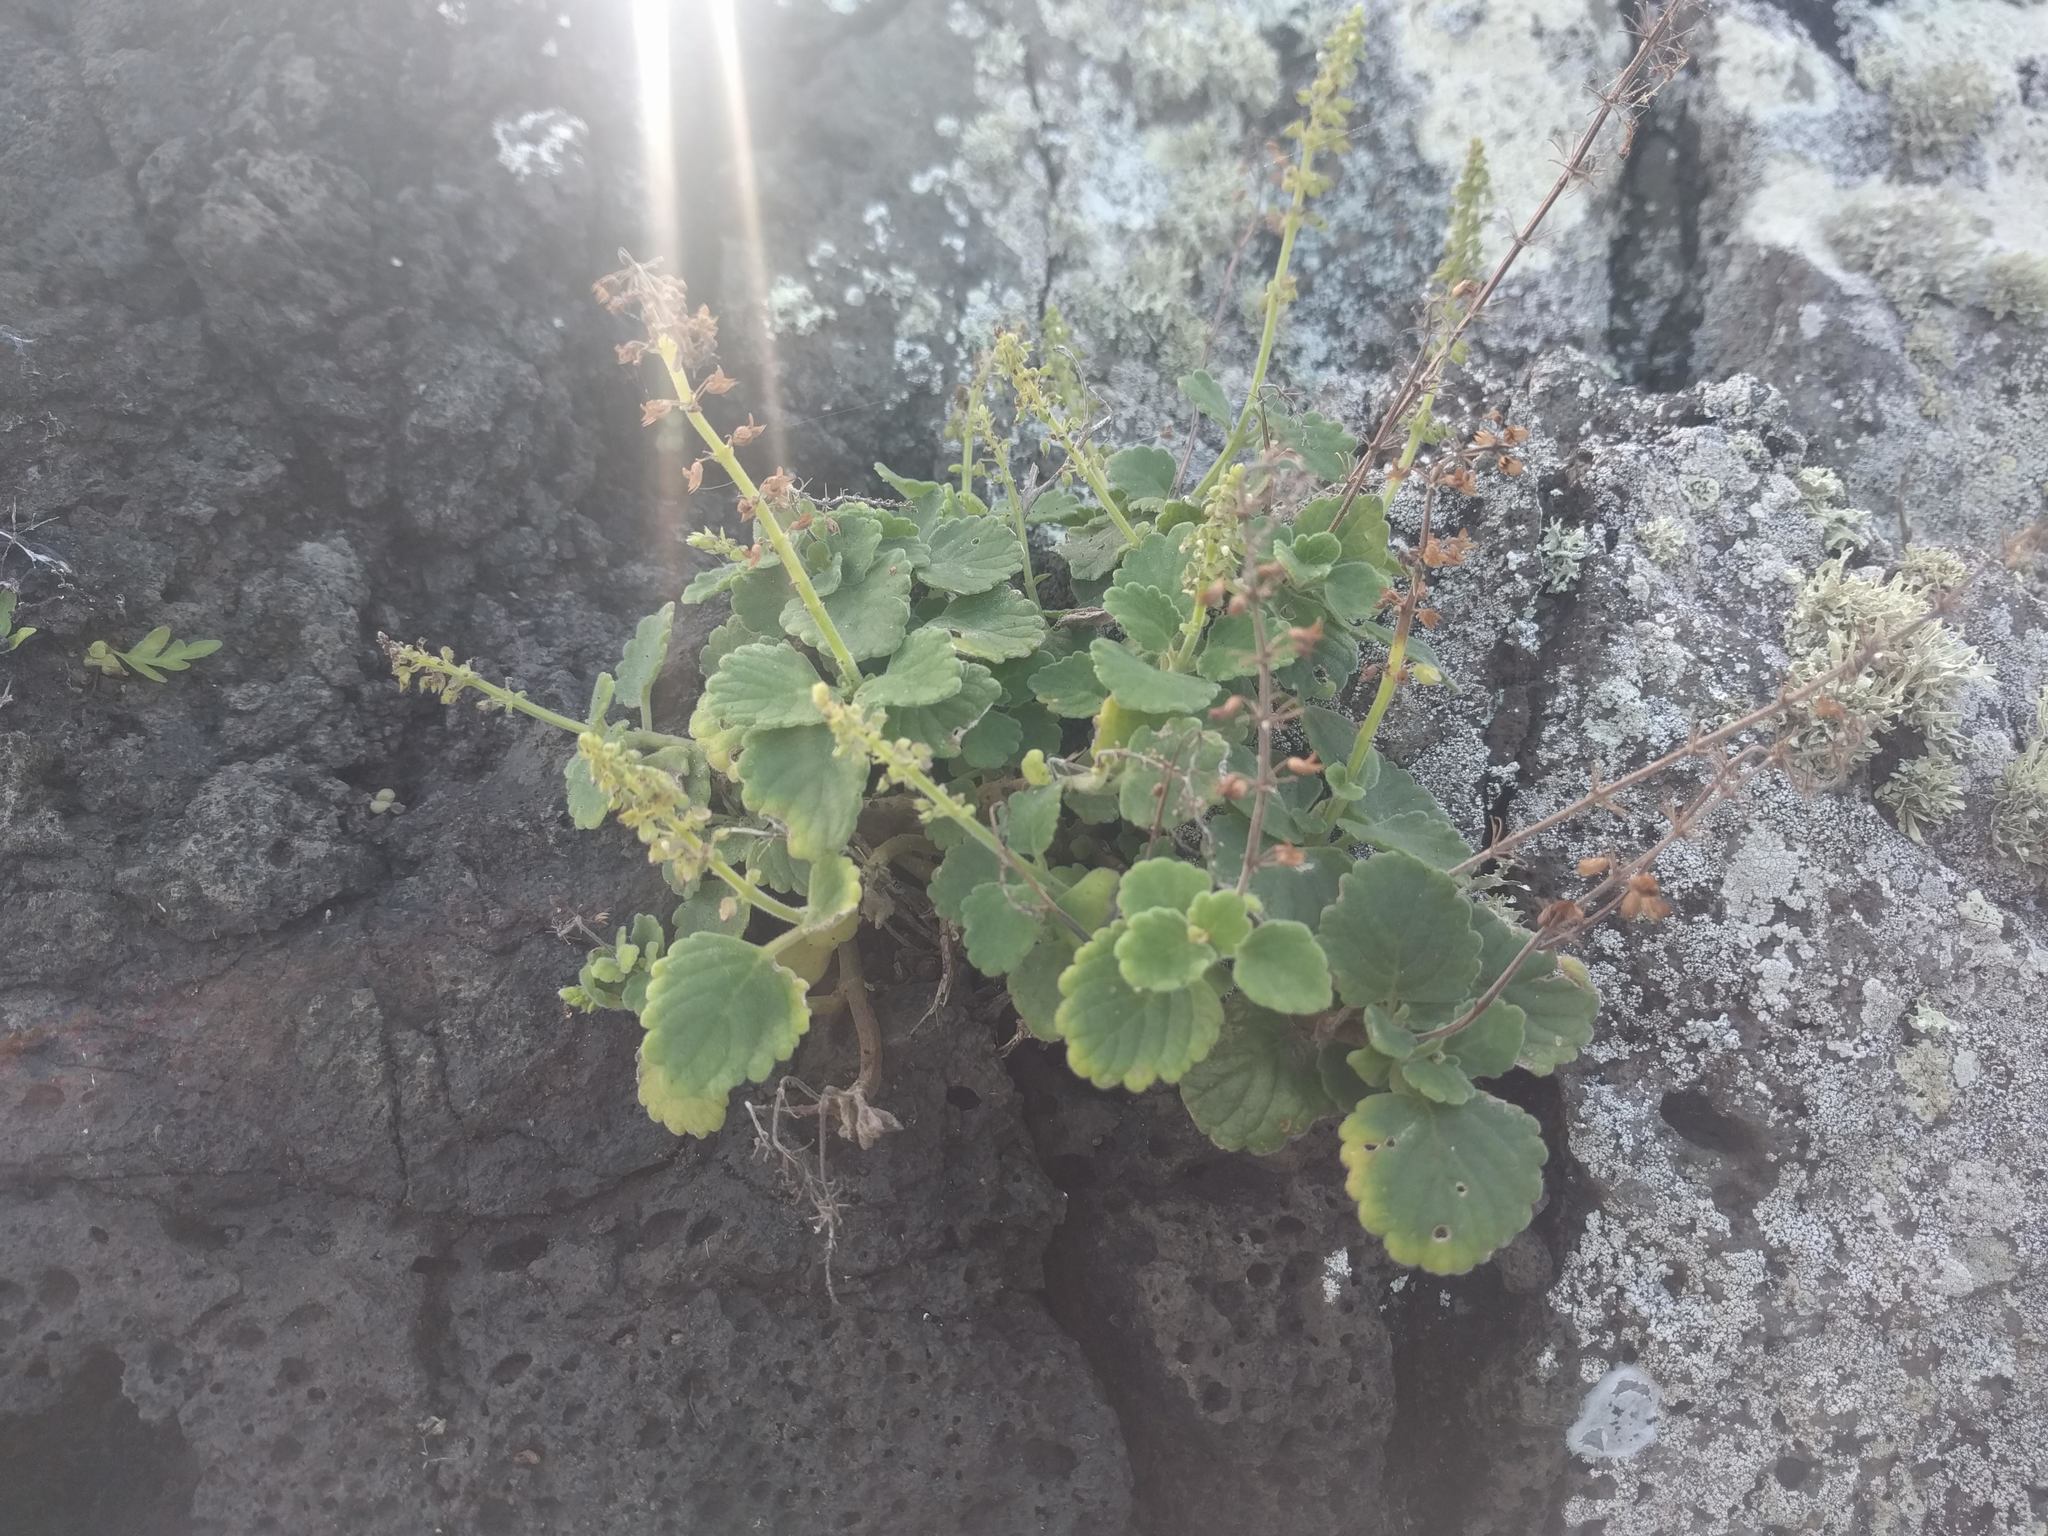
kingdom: Plantae
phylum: Tracheophyta
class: Magnoliopsida
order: Lamiales
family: Lamiaceae
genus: Coleus
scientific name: Coleus australis
